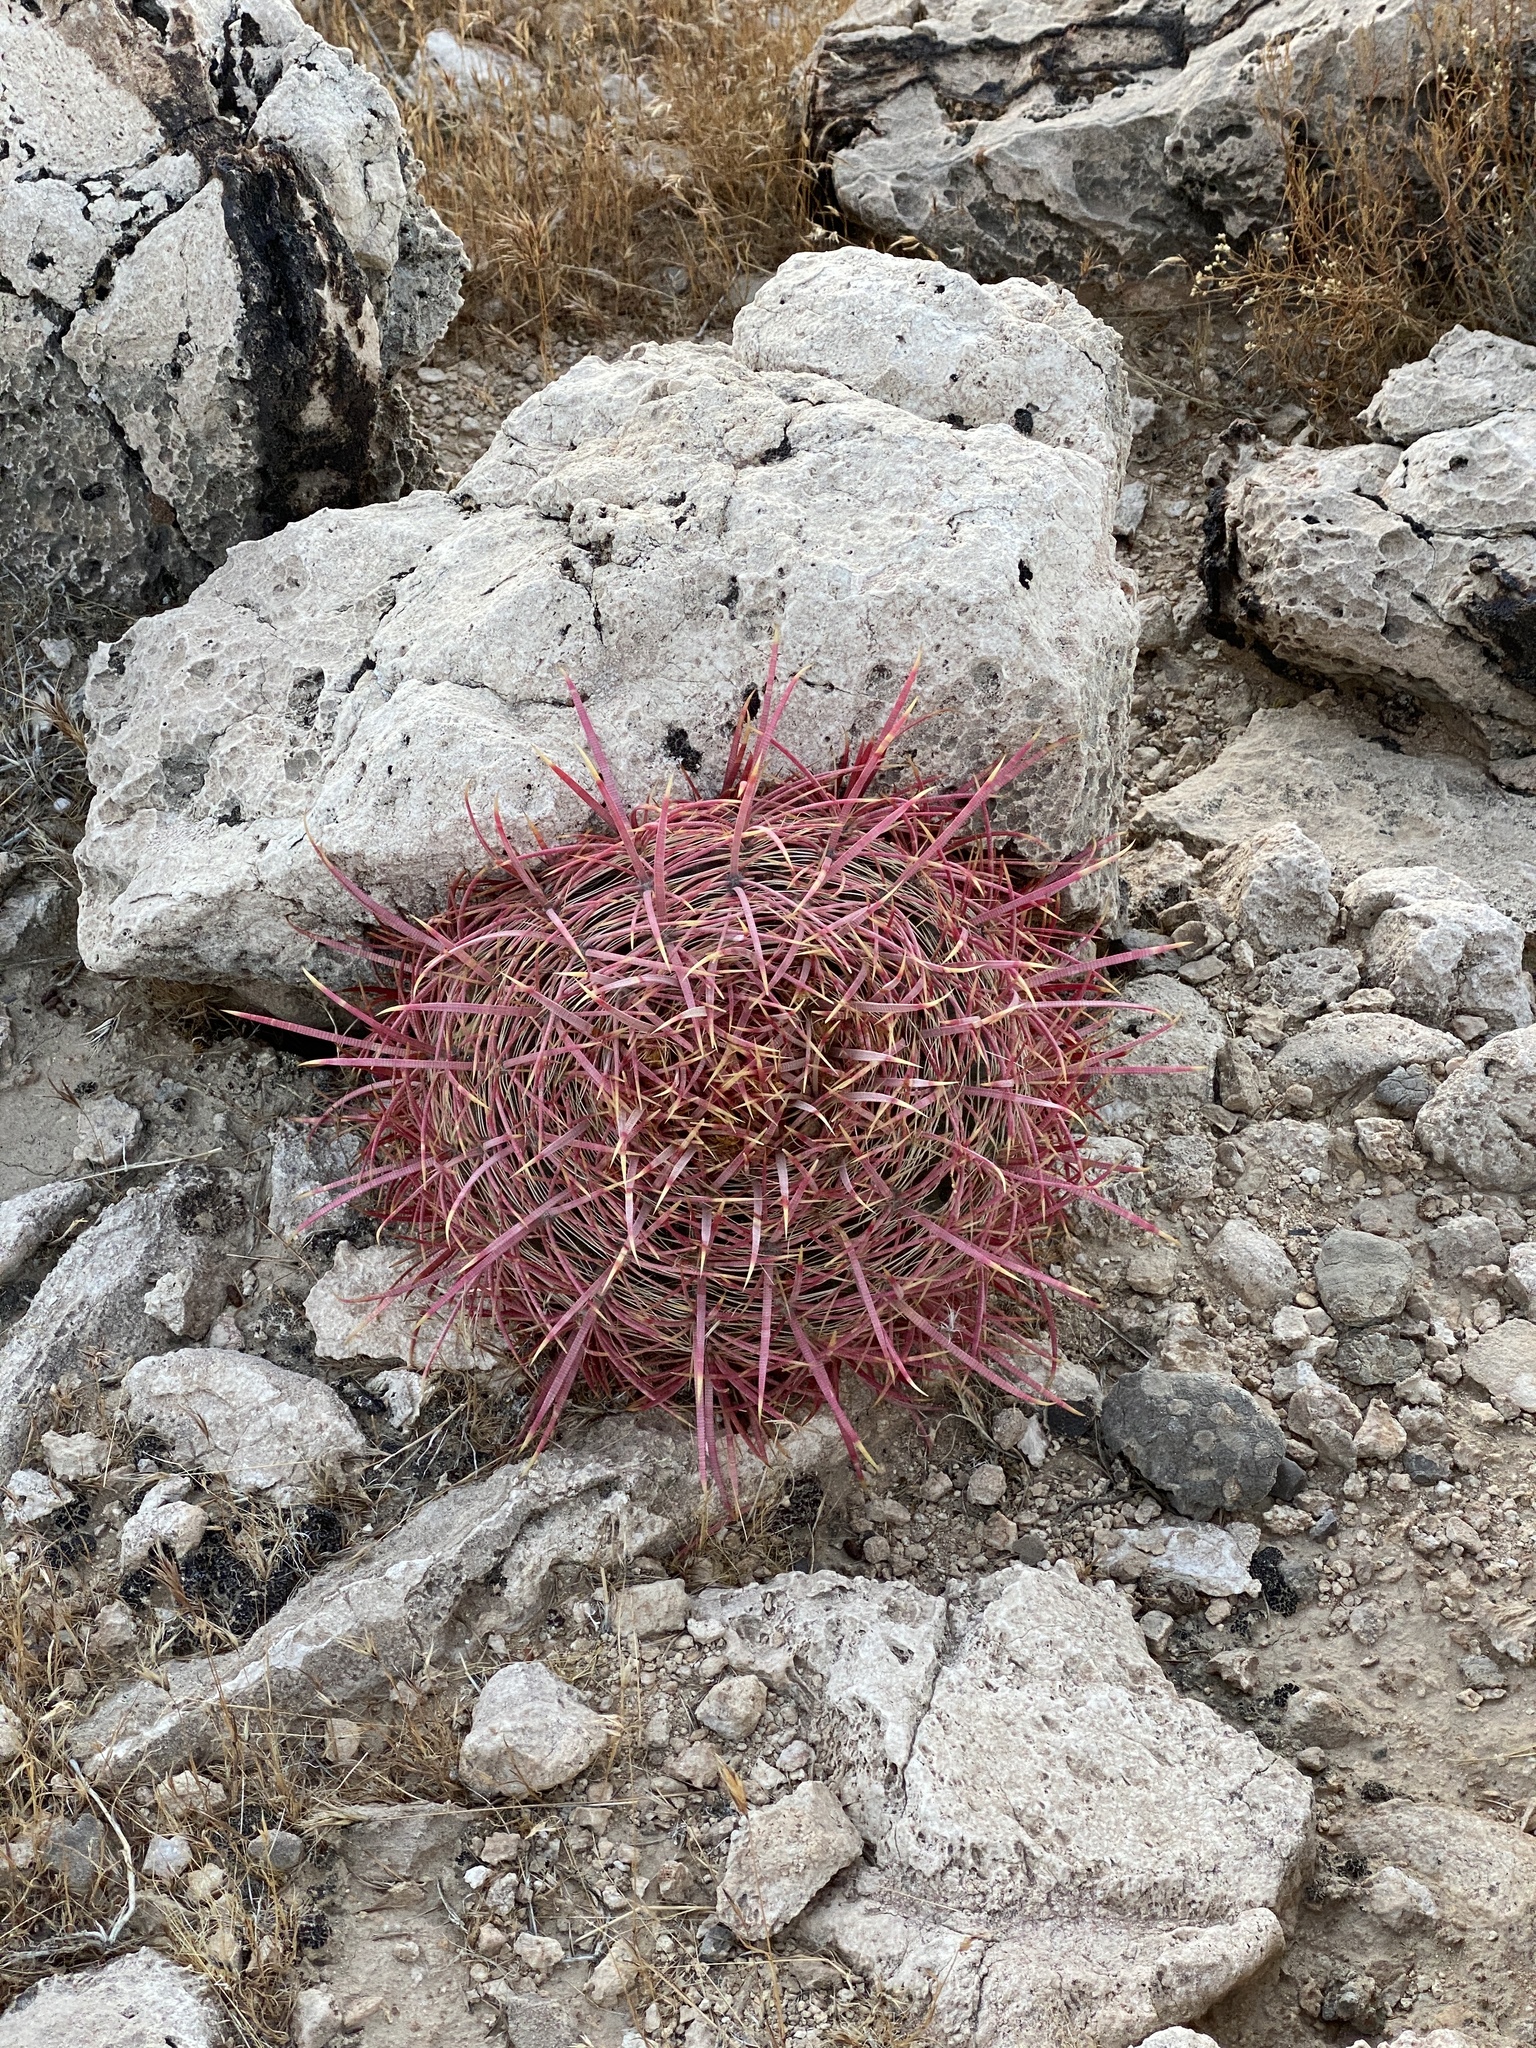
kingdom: Plantae
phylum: Tracheophyta
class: Magnoliopsida
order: Caryophyllales
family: Cactaceae
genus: Ferocactus
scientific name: Ferocactus cylindraceus
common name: California barrel cactus
